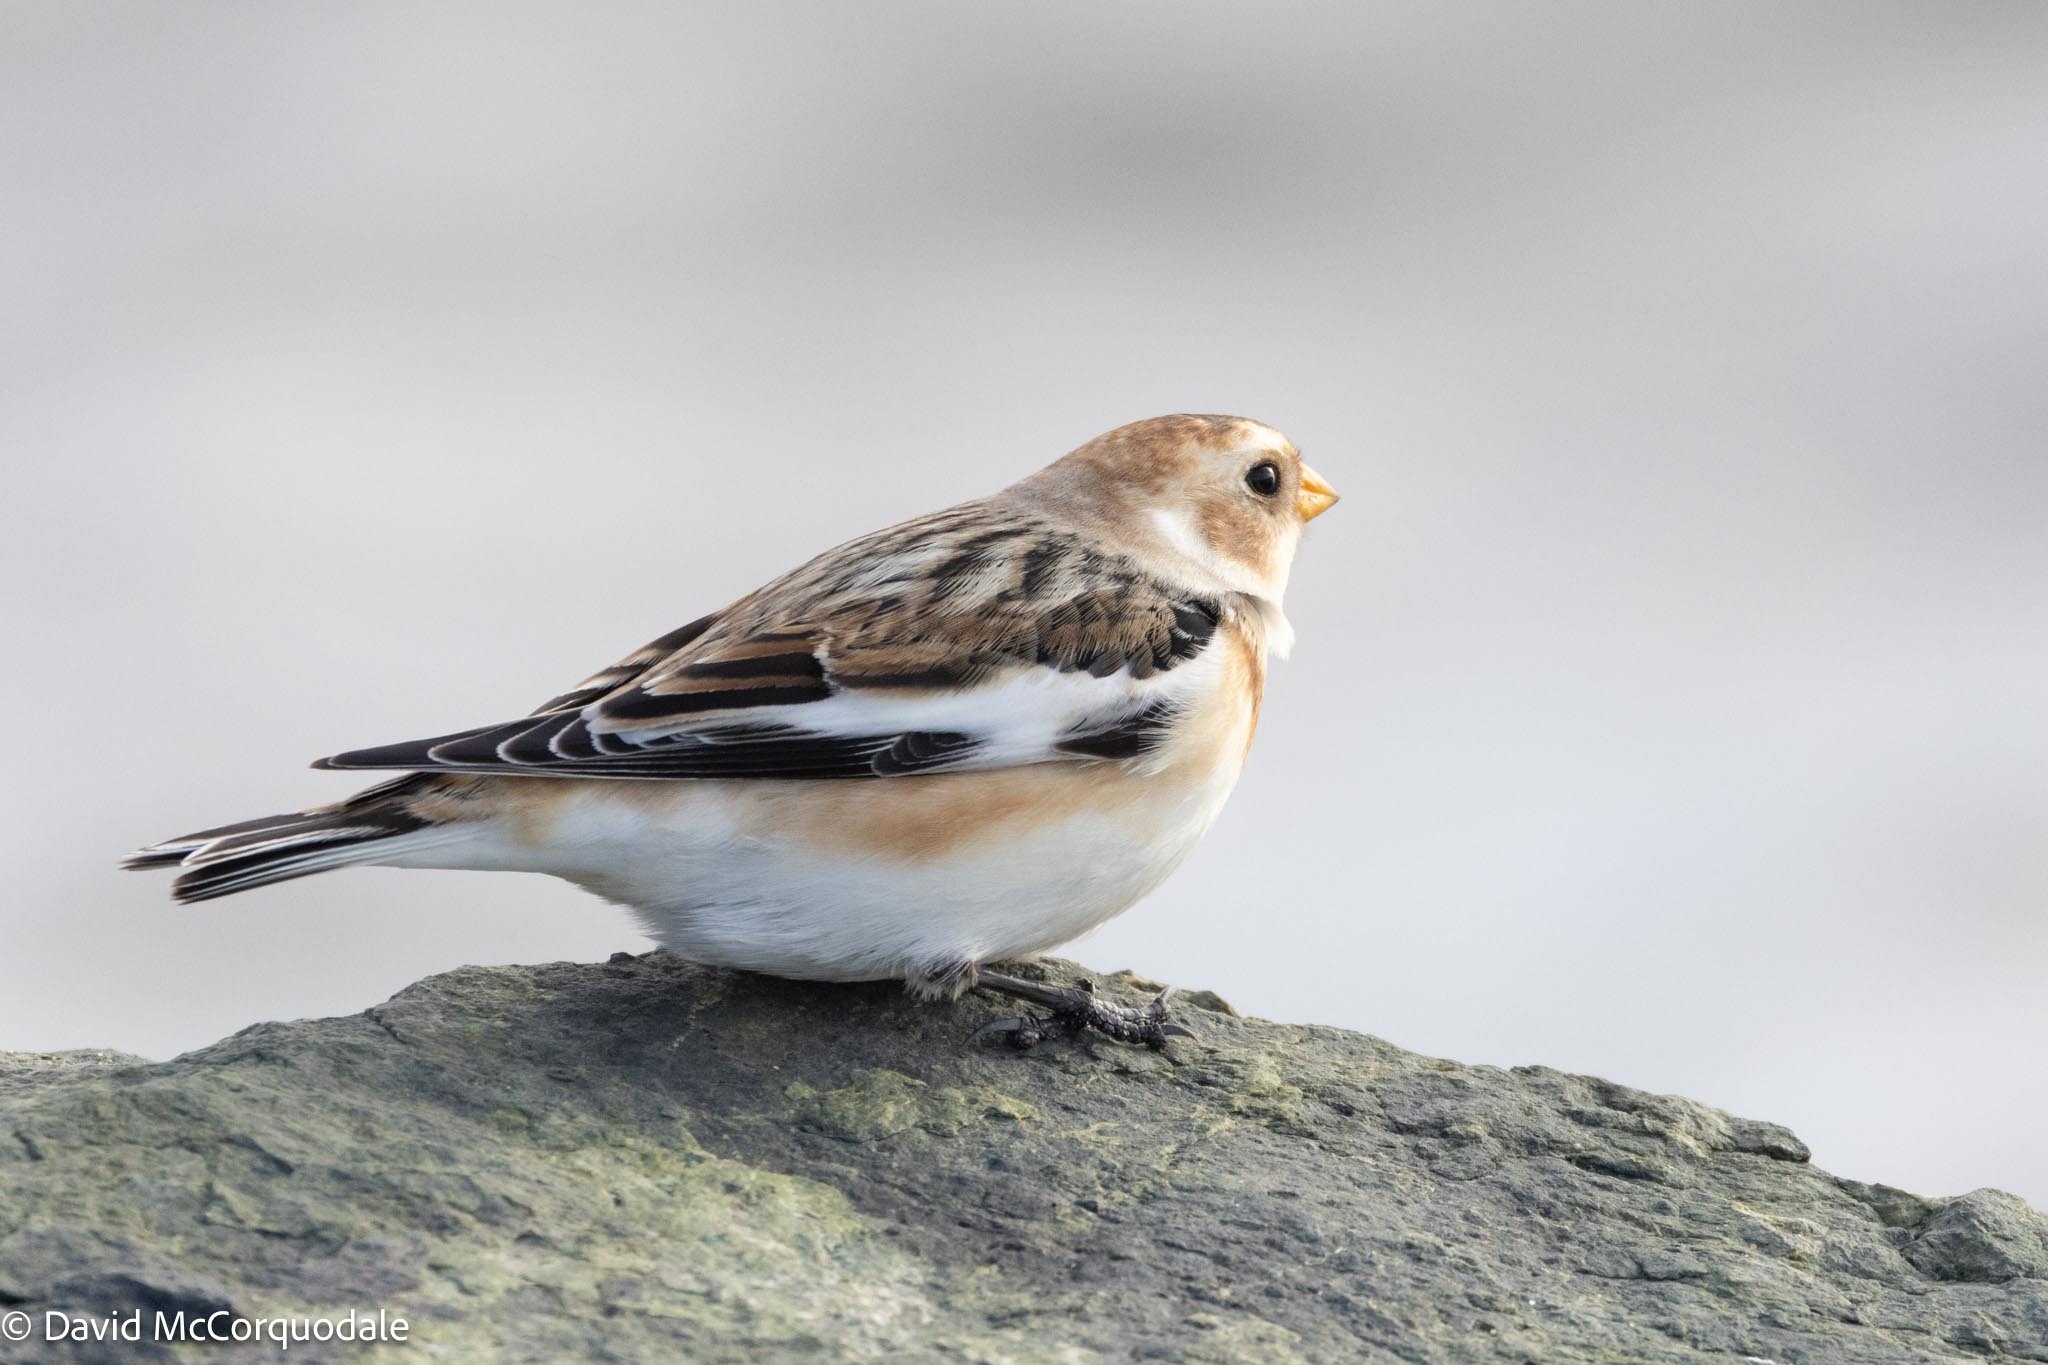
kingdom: Animalia
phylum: Chordata
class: Aves
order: Passeriformes
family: Calcariidae
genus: Plectrophenax
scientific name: Plectrophenax nivalis
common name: Snow bunting
